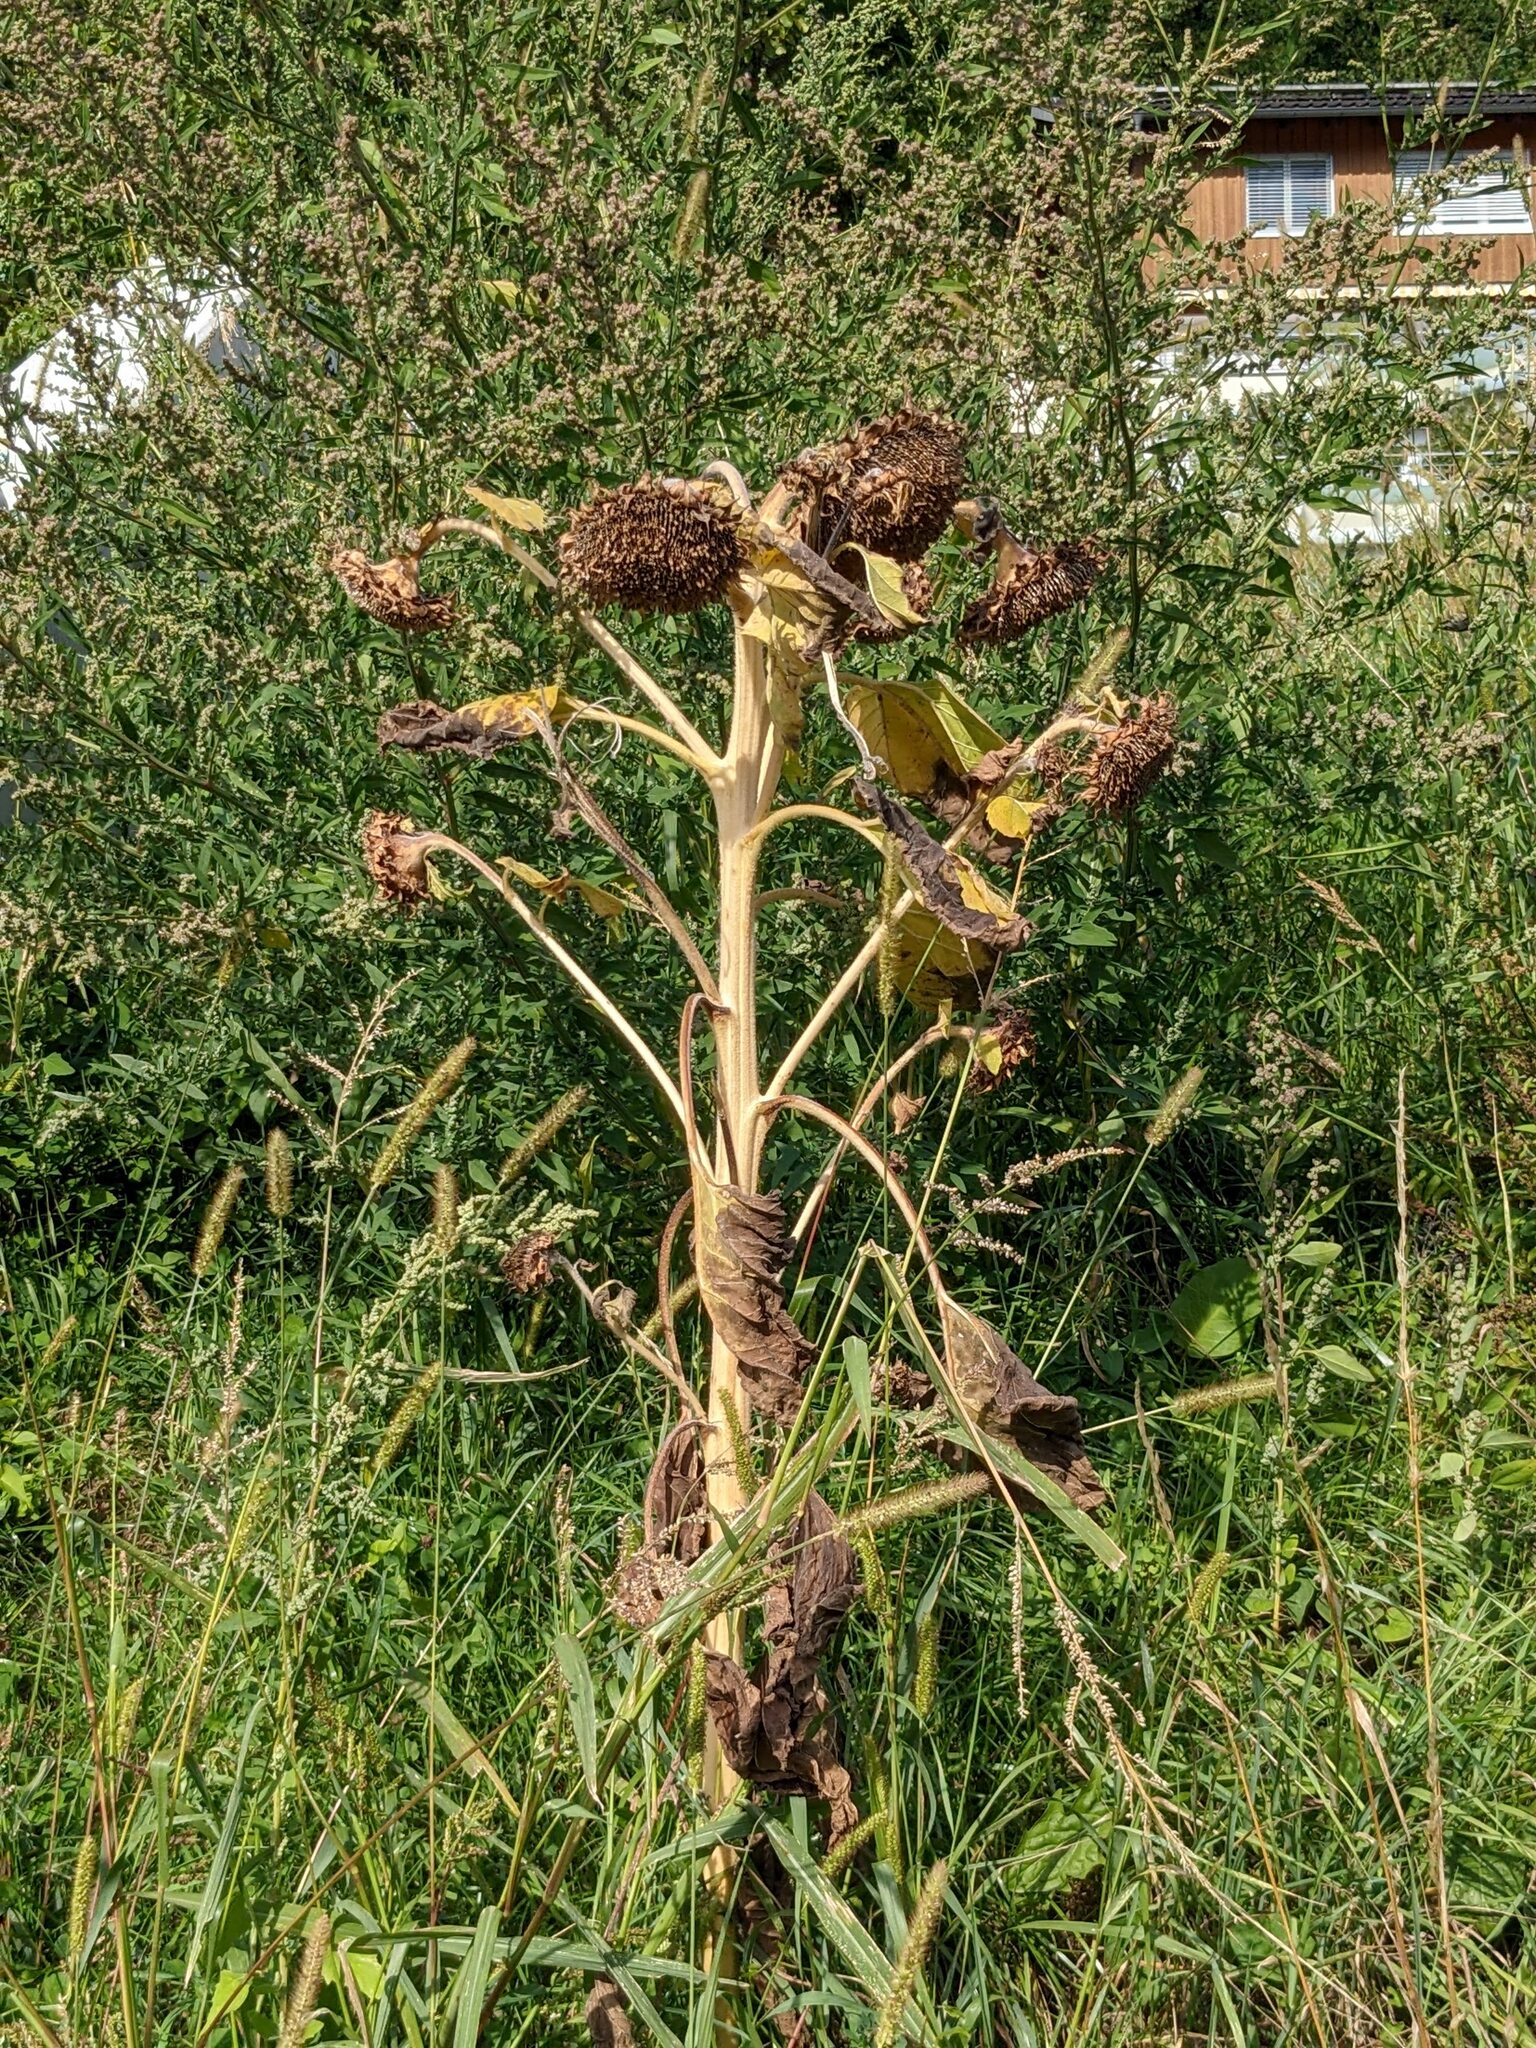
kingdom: Plantae
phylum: Tracheophyta
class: Magnoliopsida
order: Asterales
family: Asteraceae
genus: Helianthus
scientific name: Helianthus annuus
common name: Sunflower
